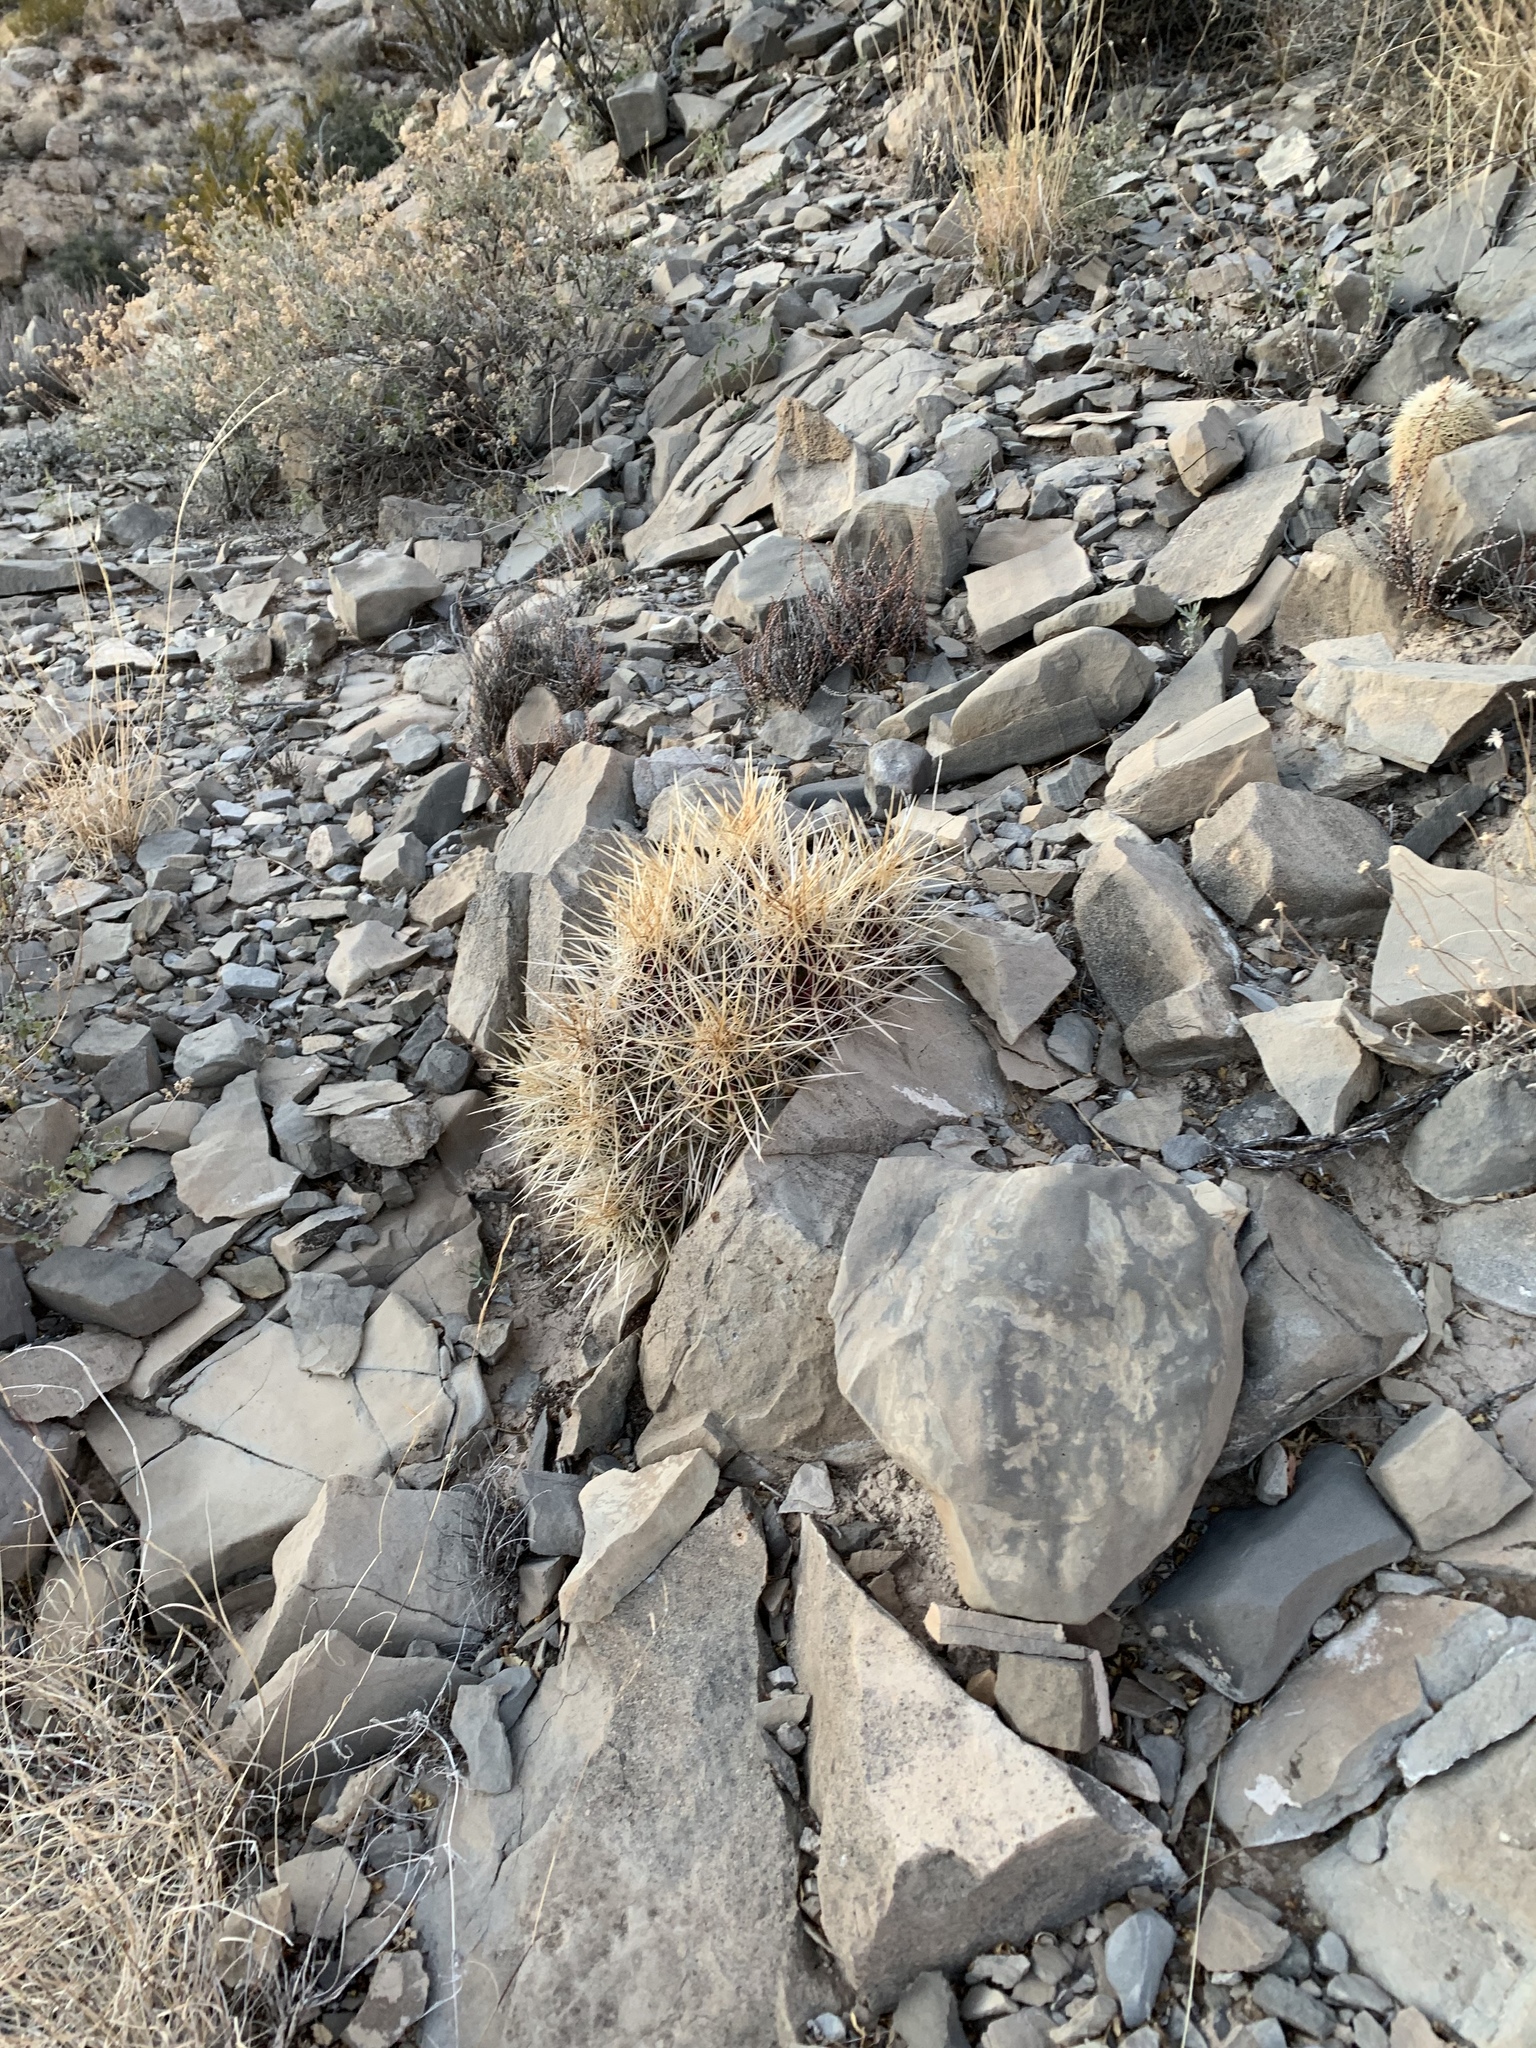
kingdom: Plantae
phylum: Tracheophyta
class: Magnoliopsida
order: Caryophyllales
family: Cactaceae
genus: Echinocereus
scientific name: Echinocereus stramineus
